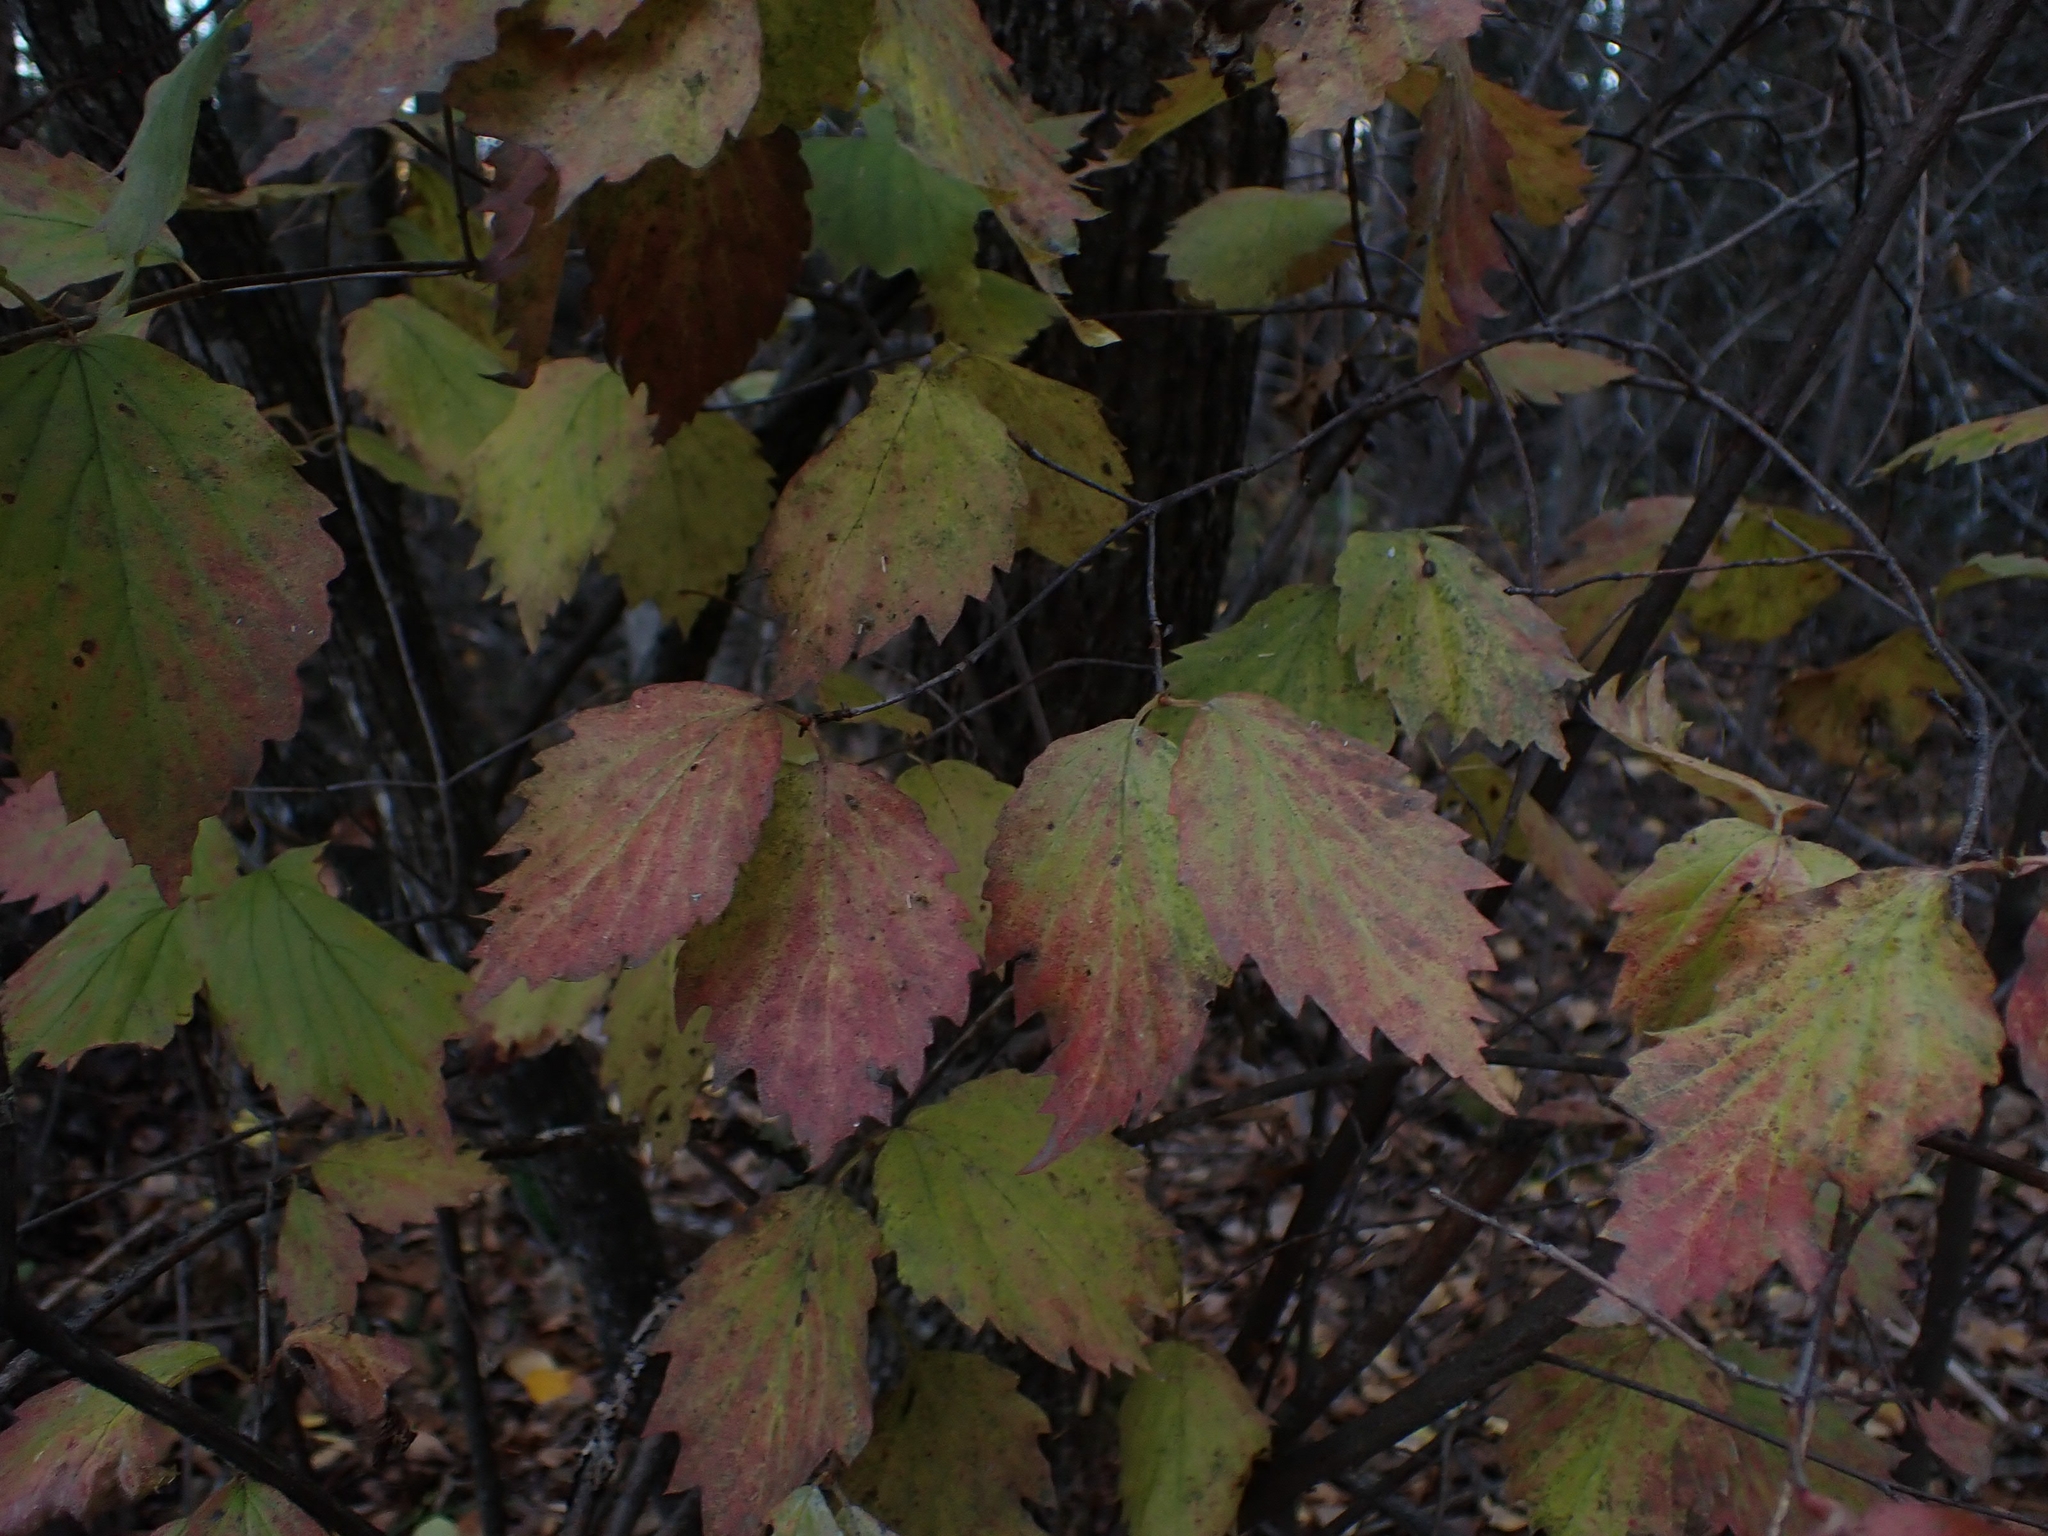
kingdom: Plantae
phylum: Tracheophyta
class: Magnoliopsida
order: Dipsacales
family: Viburnaceae
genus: Viburnum
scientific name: Viburnum rafinesqueanum
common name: Downy arrow-wood
